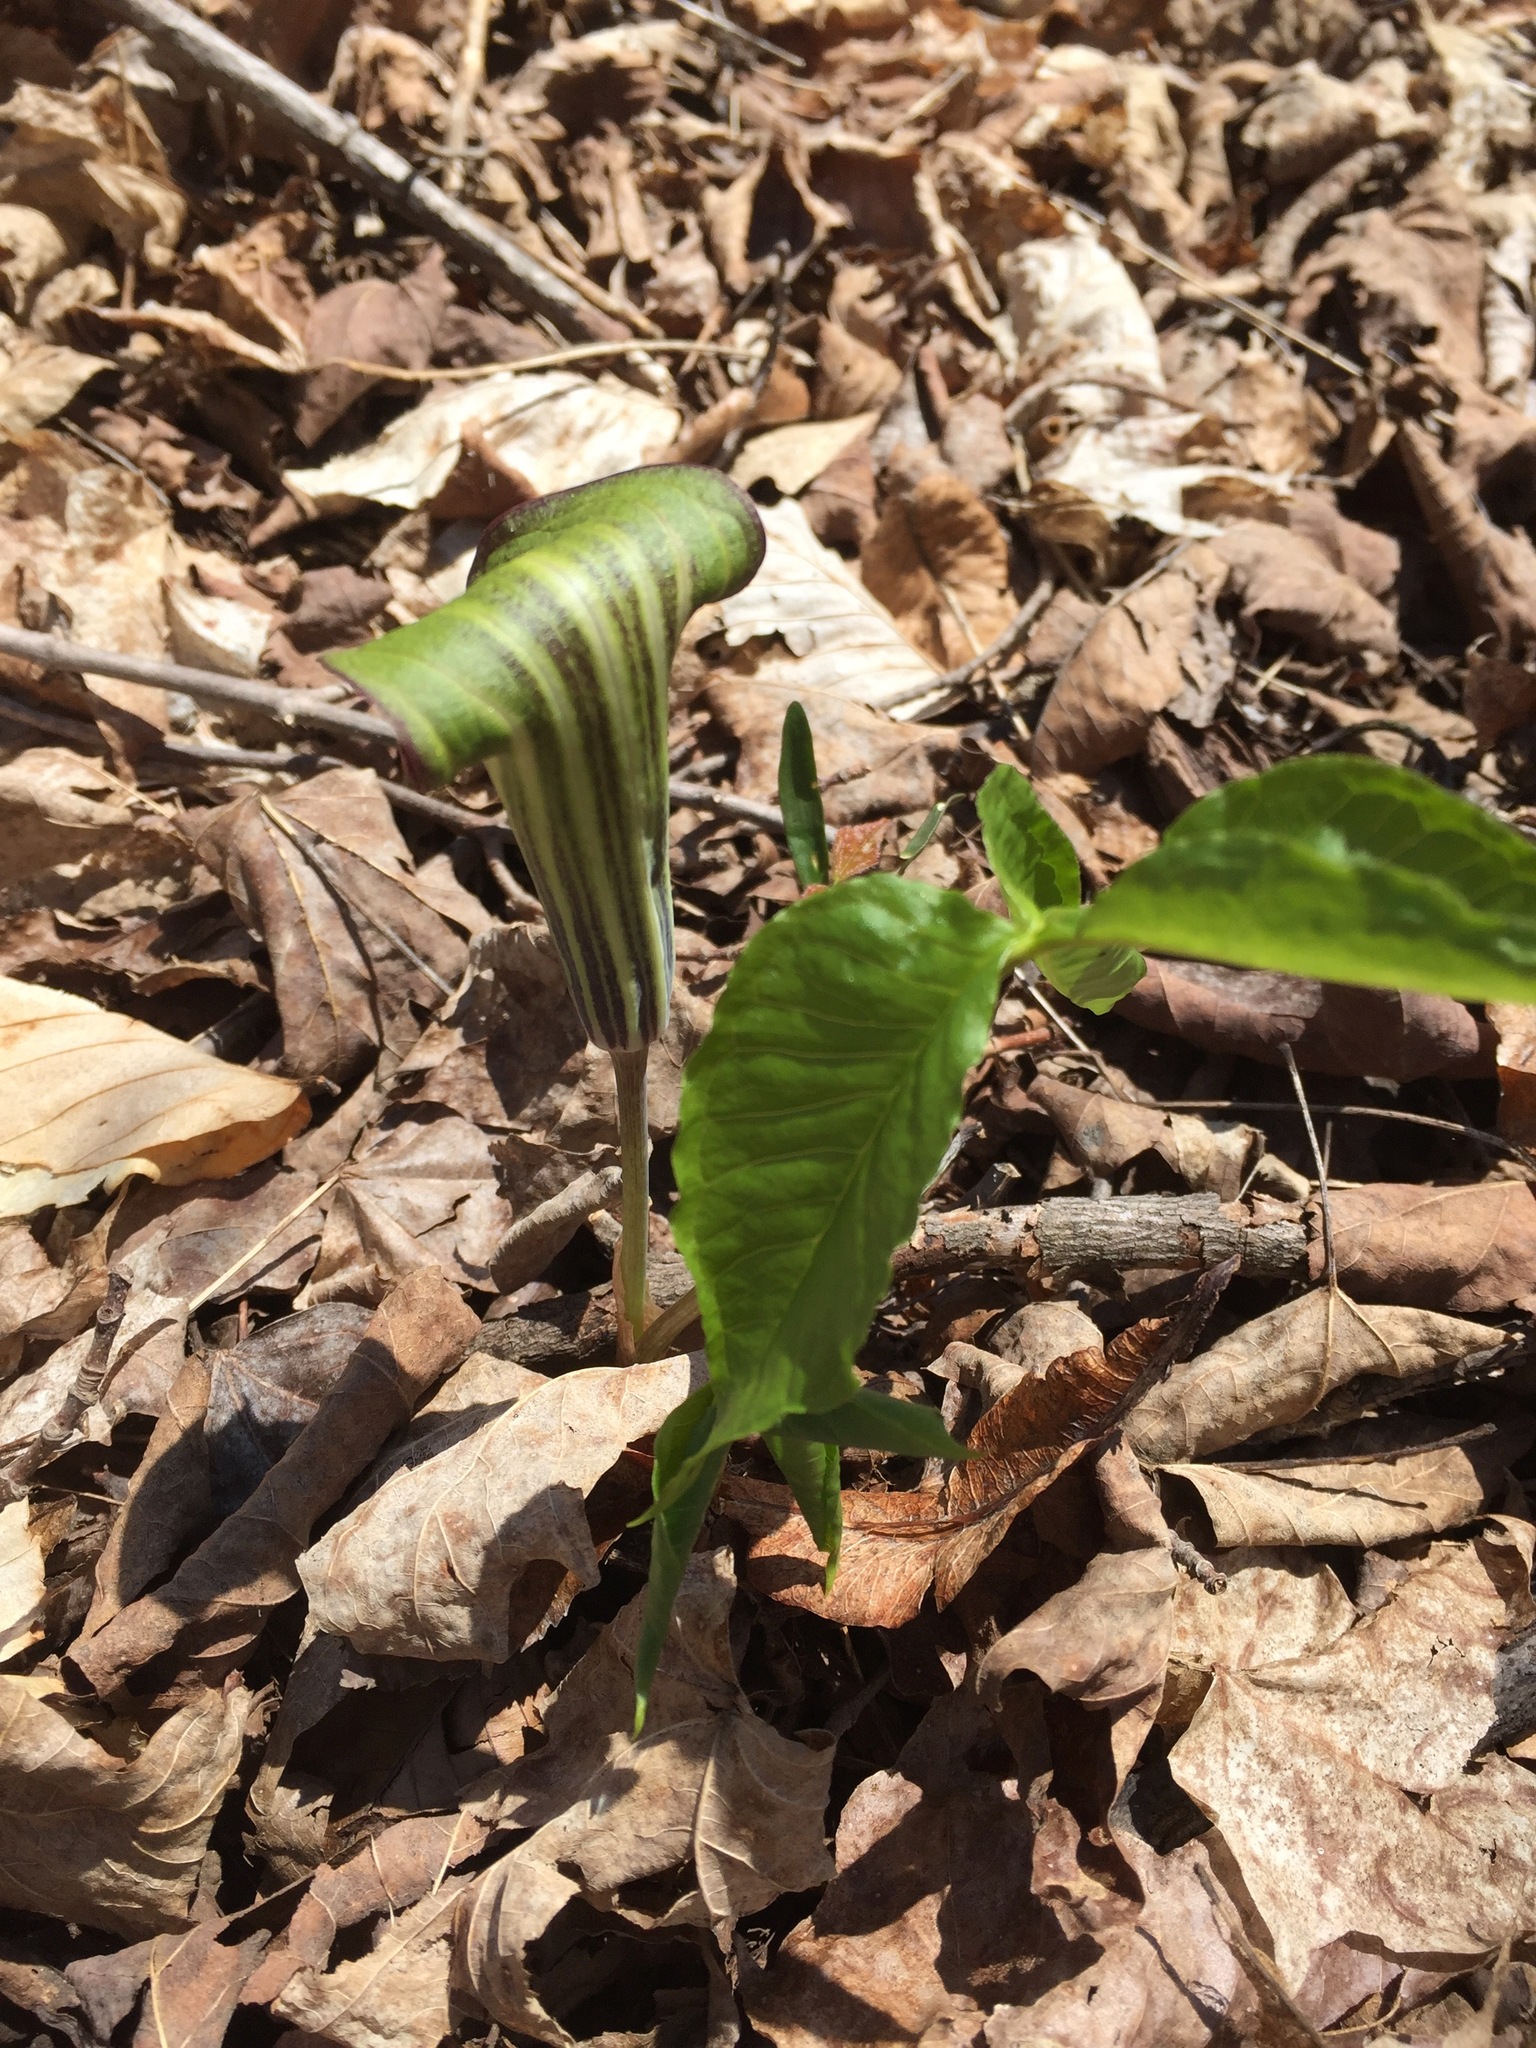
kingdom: Plantae
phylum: Tracheophyta
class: Liliopsida
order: Alismatales
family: Araceae
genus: Arisaema
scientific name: Arisaema triphyllum
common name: Jack-in-the-pulpit
